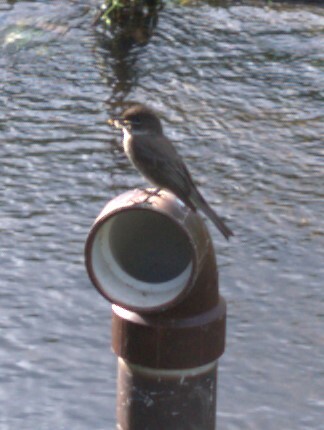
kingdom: Animalia
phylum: Chordata
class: Aves
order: Passeriformes
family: Tyrannidae
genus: Sayornis
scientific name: Sayornis phoebe
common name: Eastern phoebe
